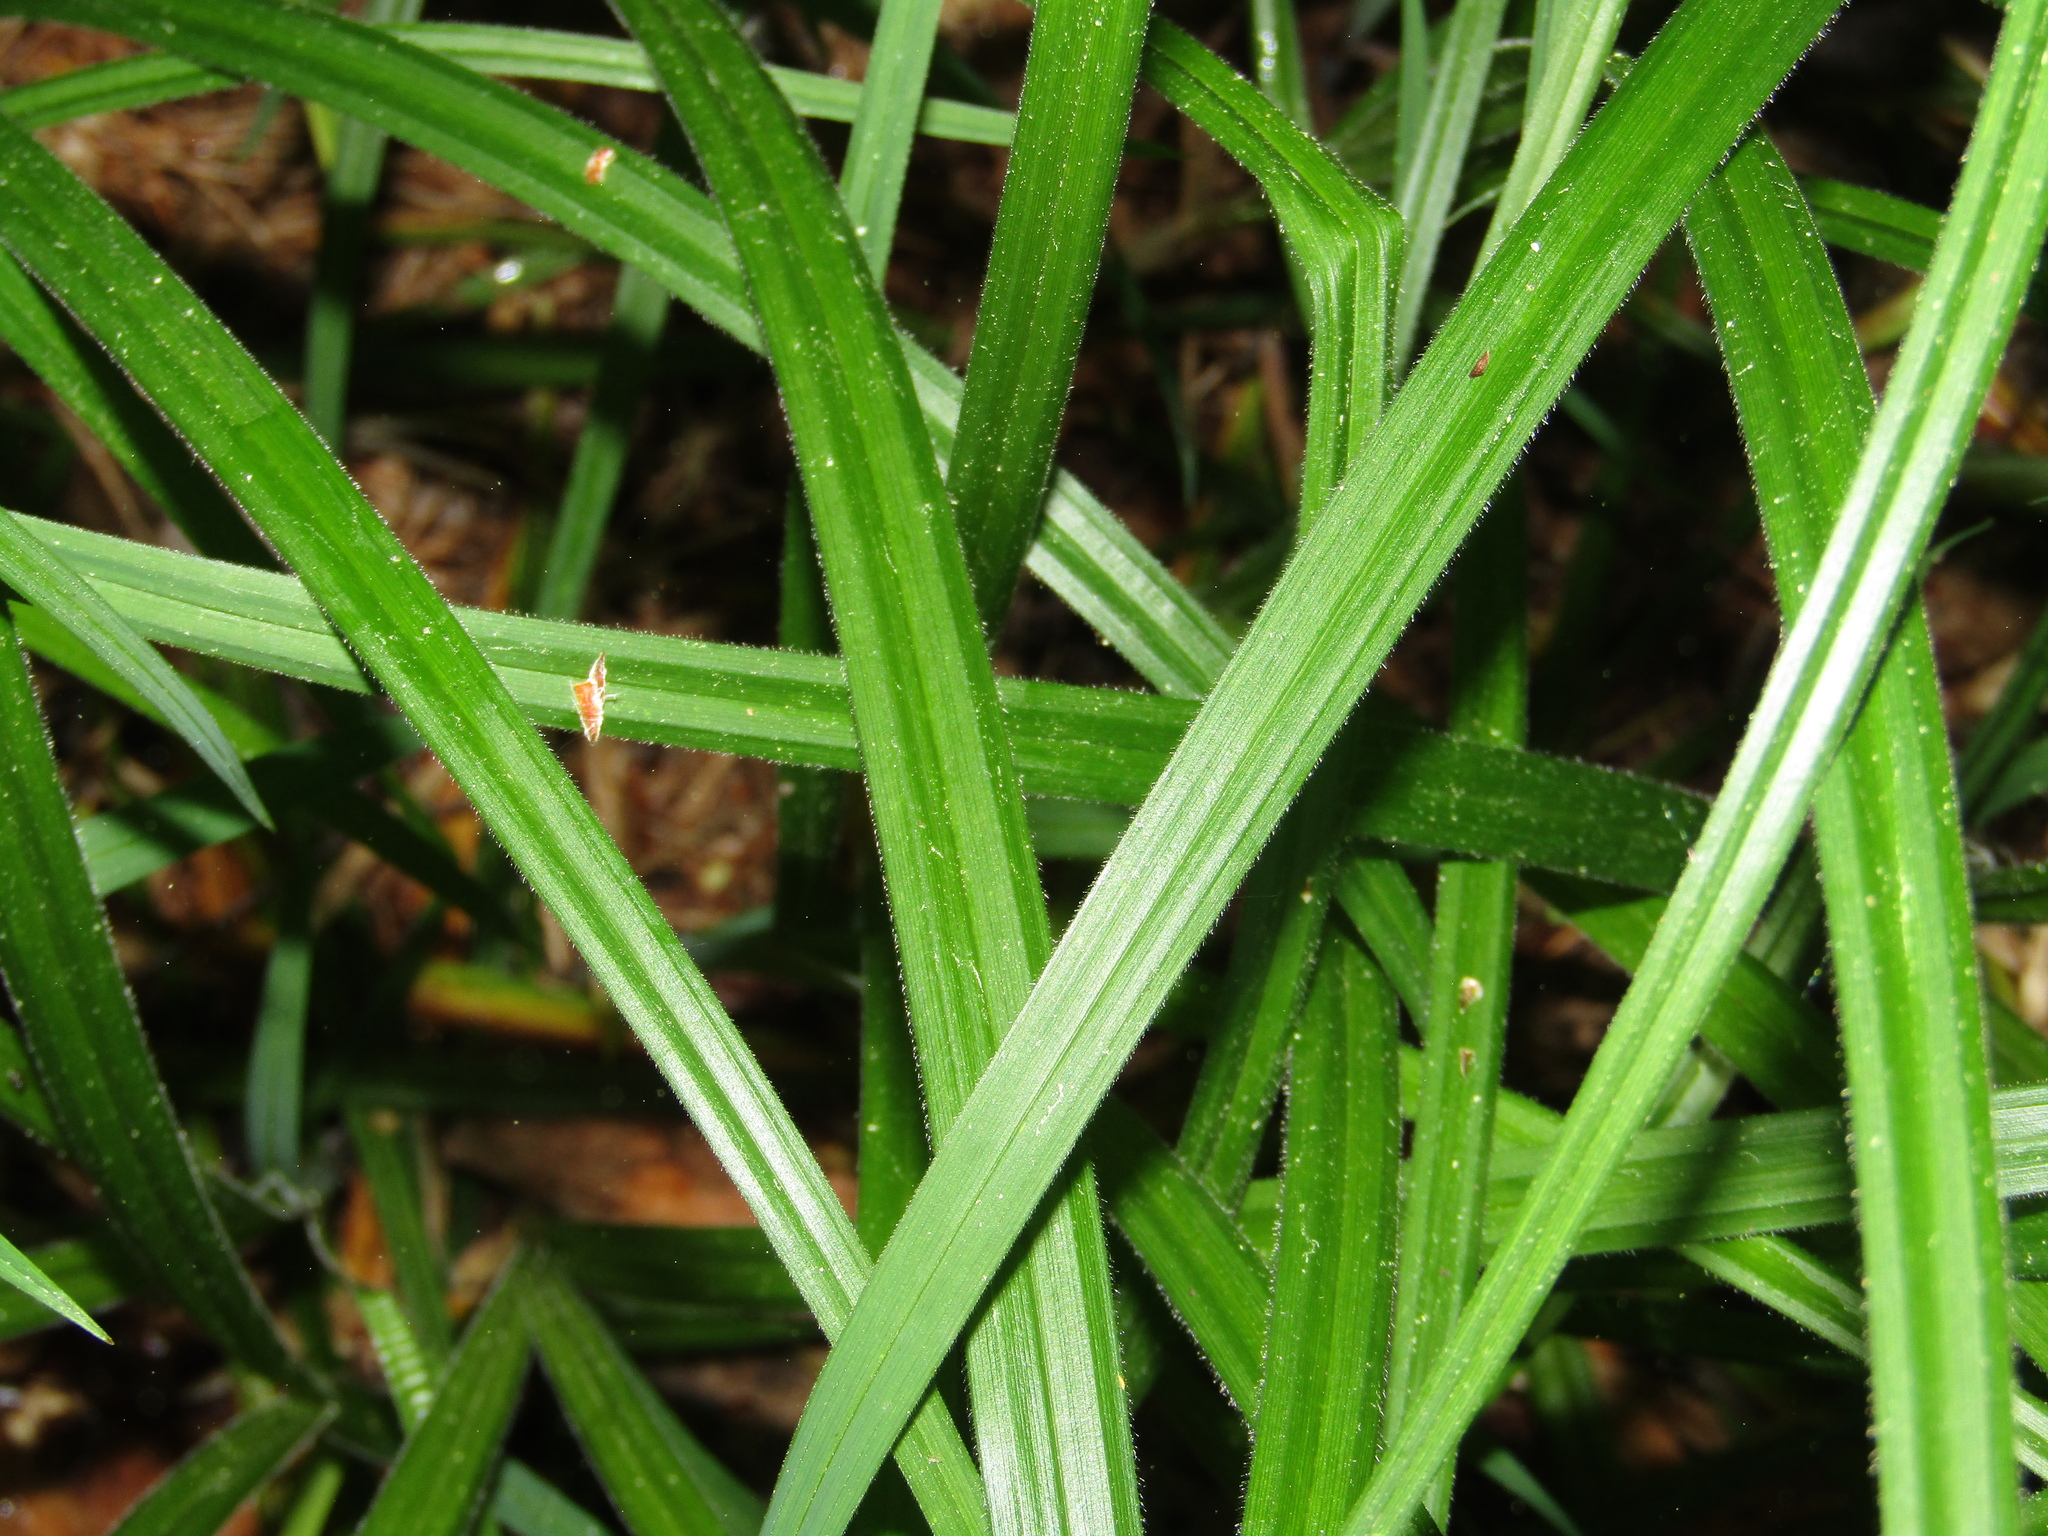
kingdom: Plantae
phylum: Tracheophyta
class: Liliopsida
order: Poales
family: Cyperaceae
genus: Carex
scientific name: Carex pilosa
